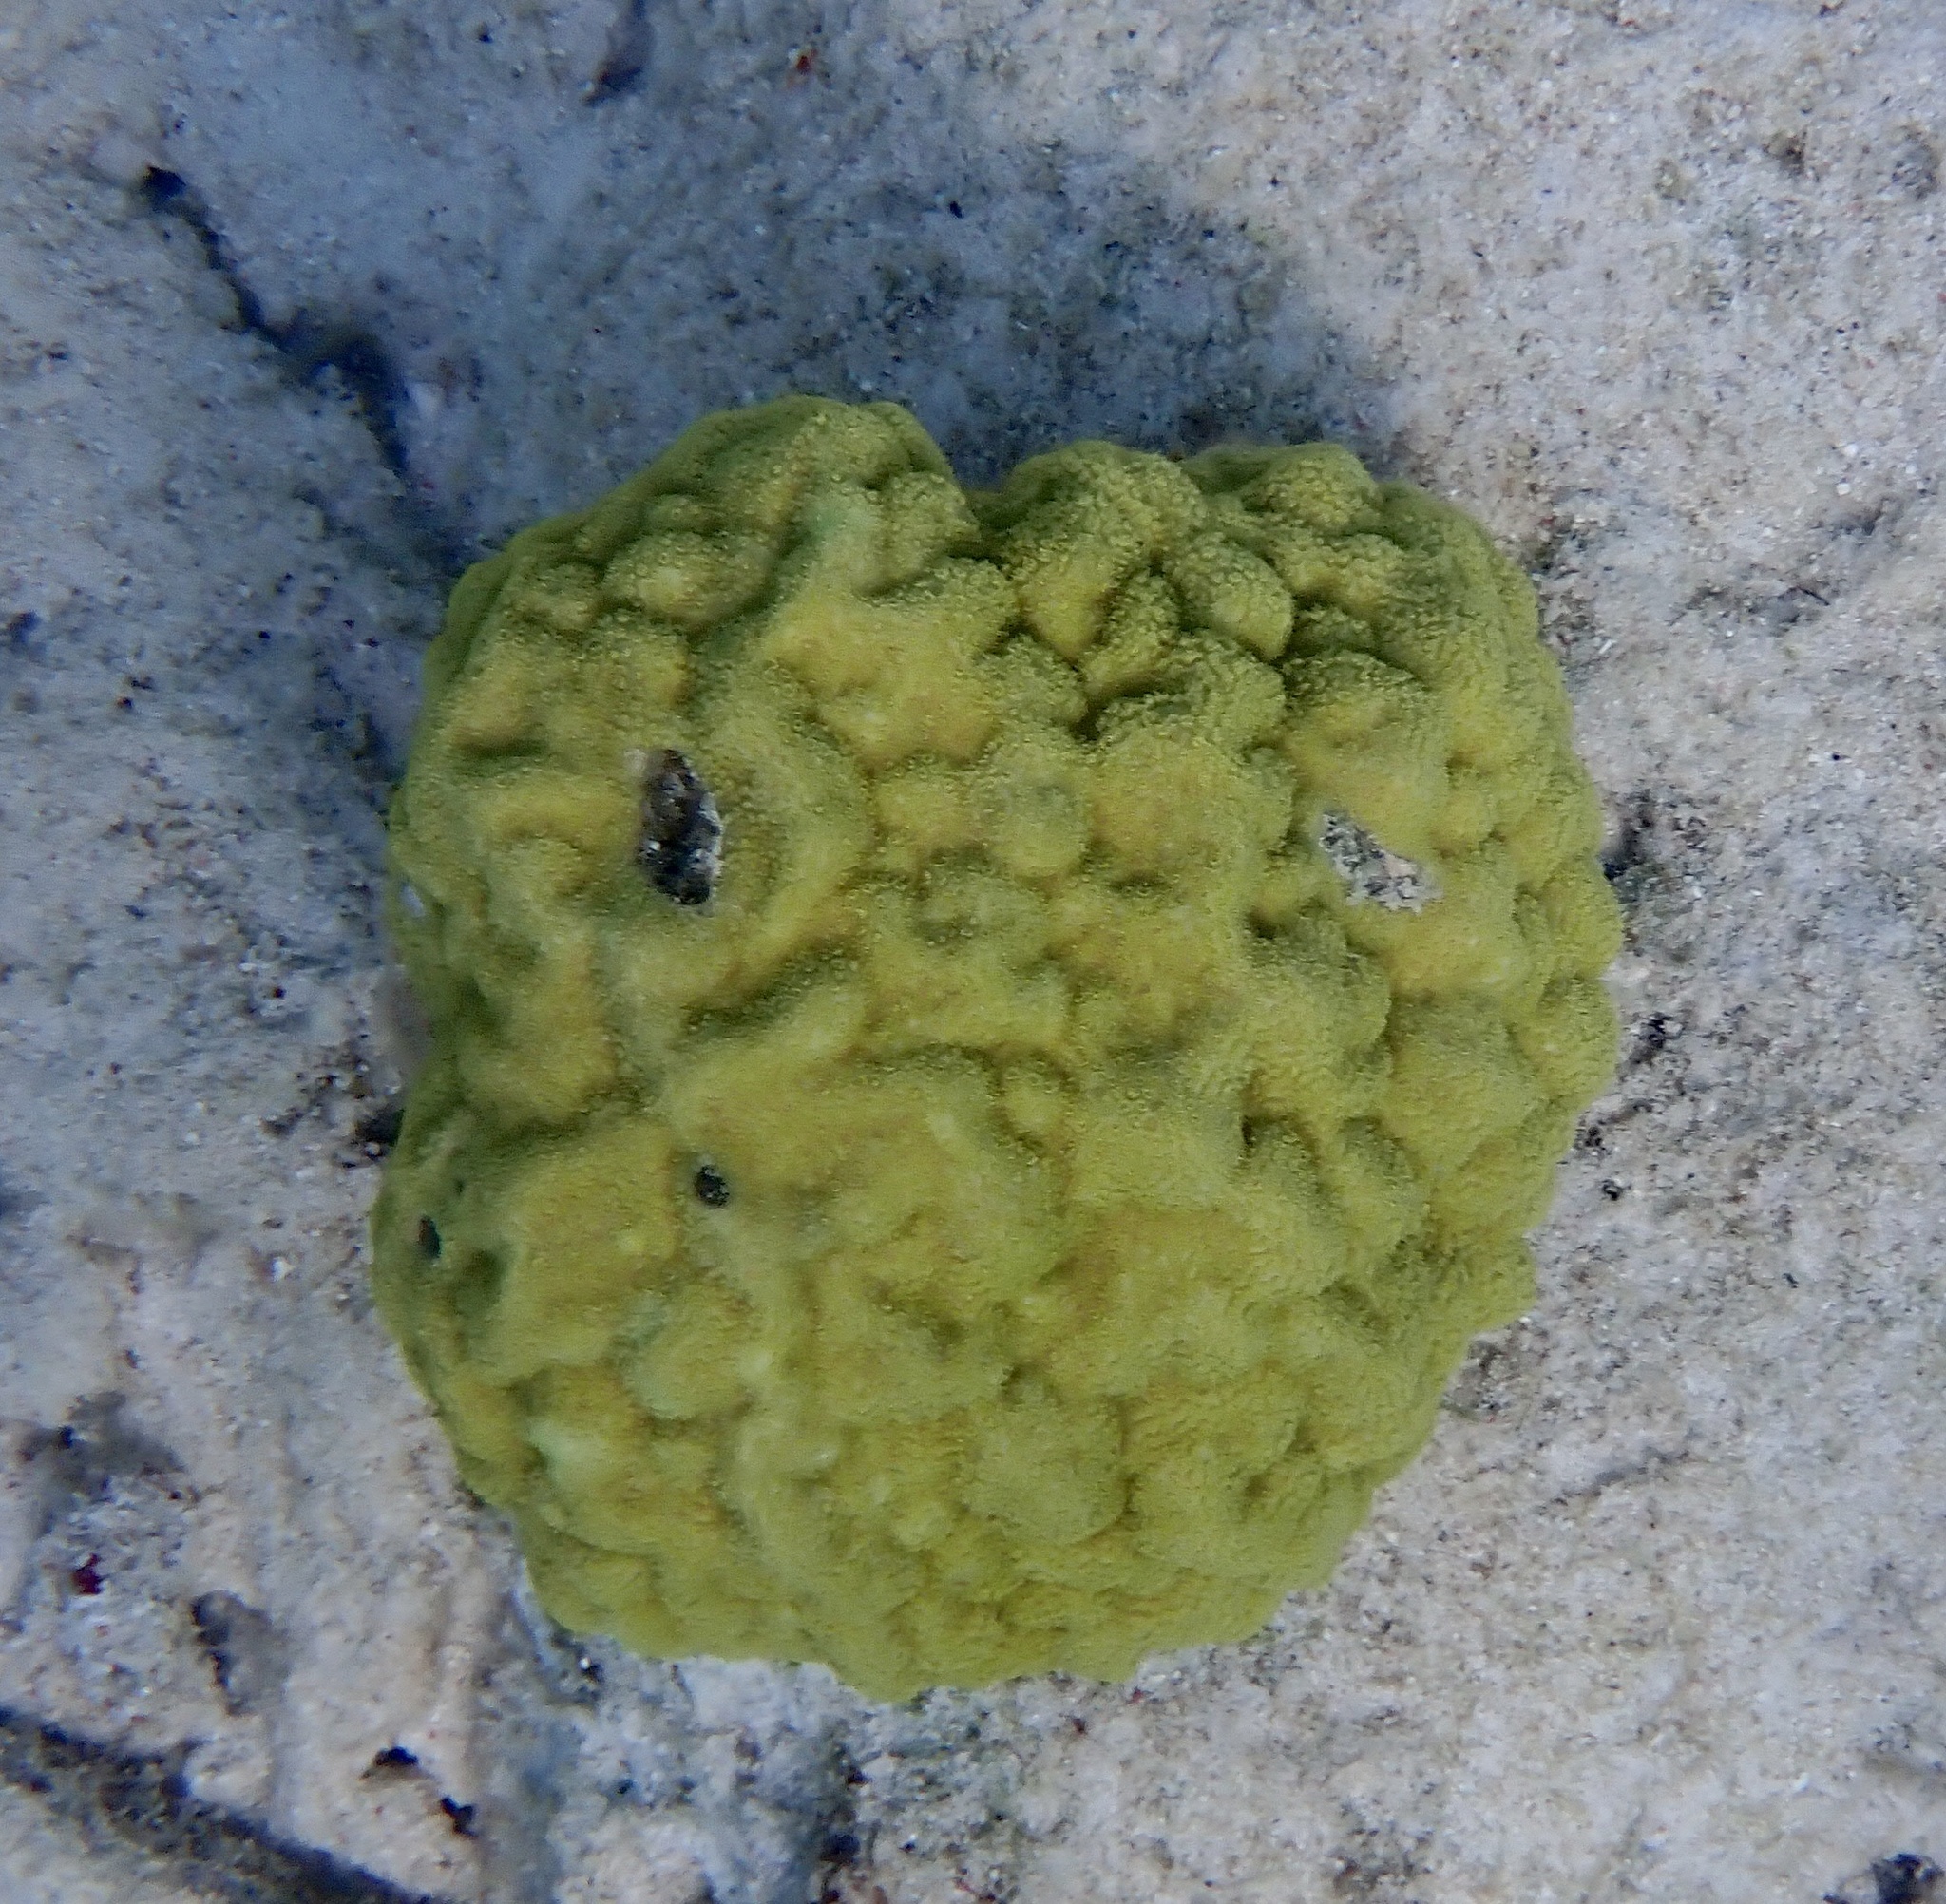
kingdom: Animalia
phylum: Cnidaria
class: Anthozoa
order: Scleractinia
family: Poritidae
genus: Porites
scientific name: Porites astreoides
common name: Mustard hill coral
